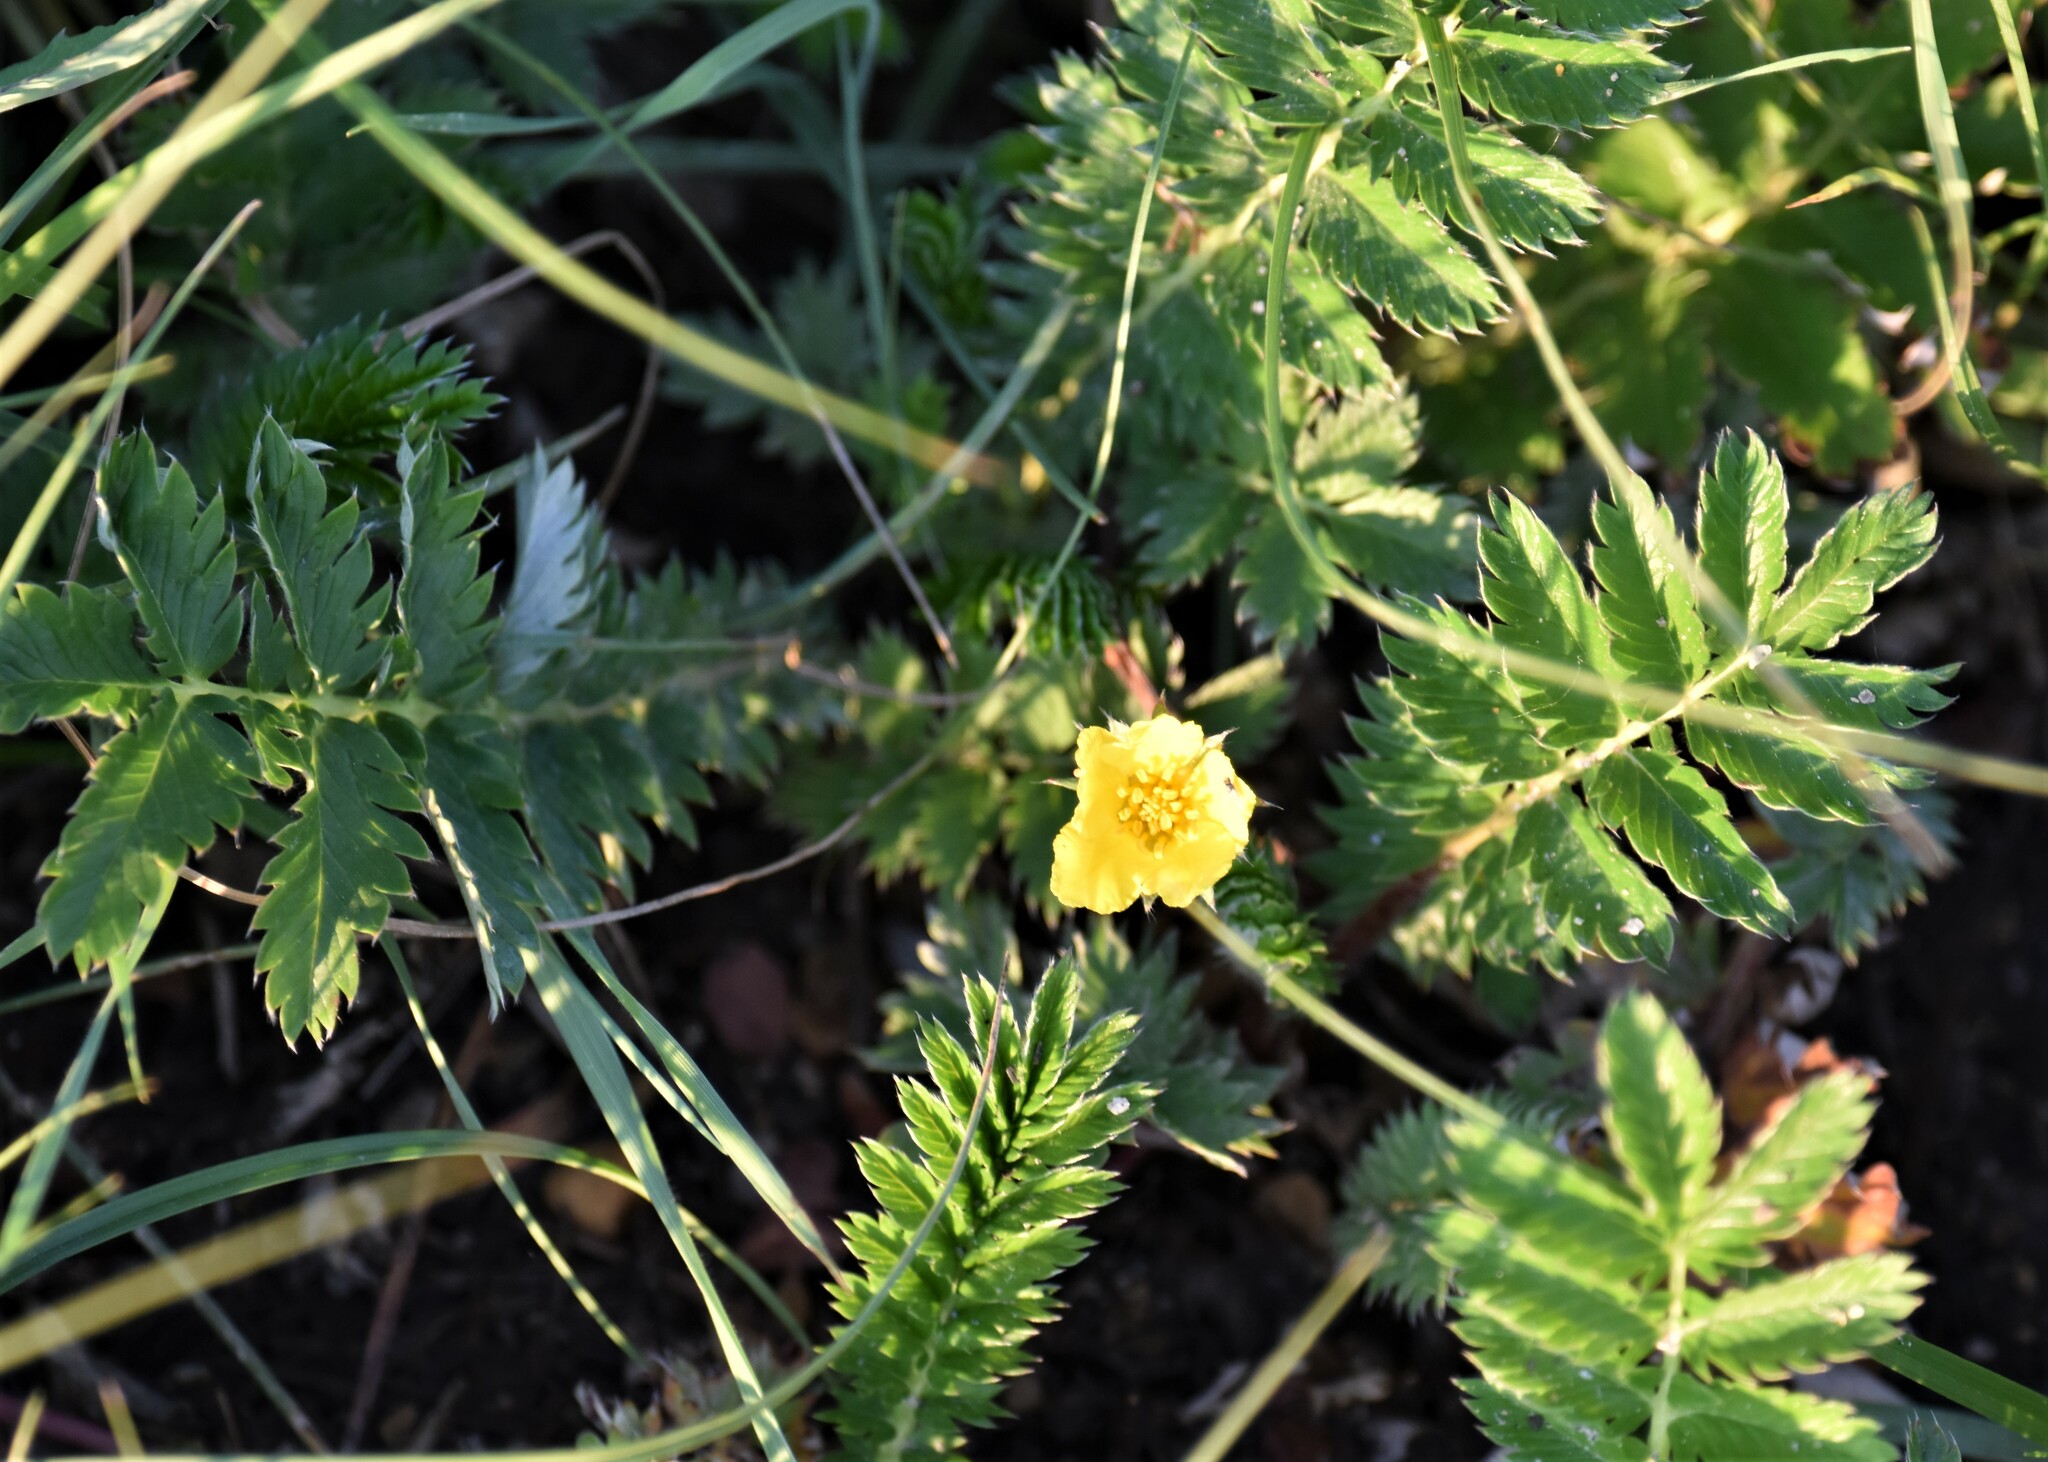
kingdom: Plantae
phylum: Tracheophyta
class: Magnoliopsida
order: Rosales
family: Rosaceae
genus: Argentina
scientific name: Argentina anserina
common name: Common silverweed
